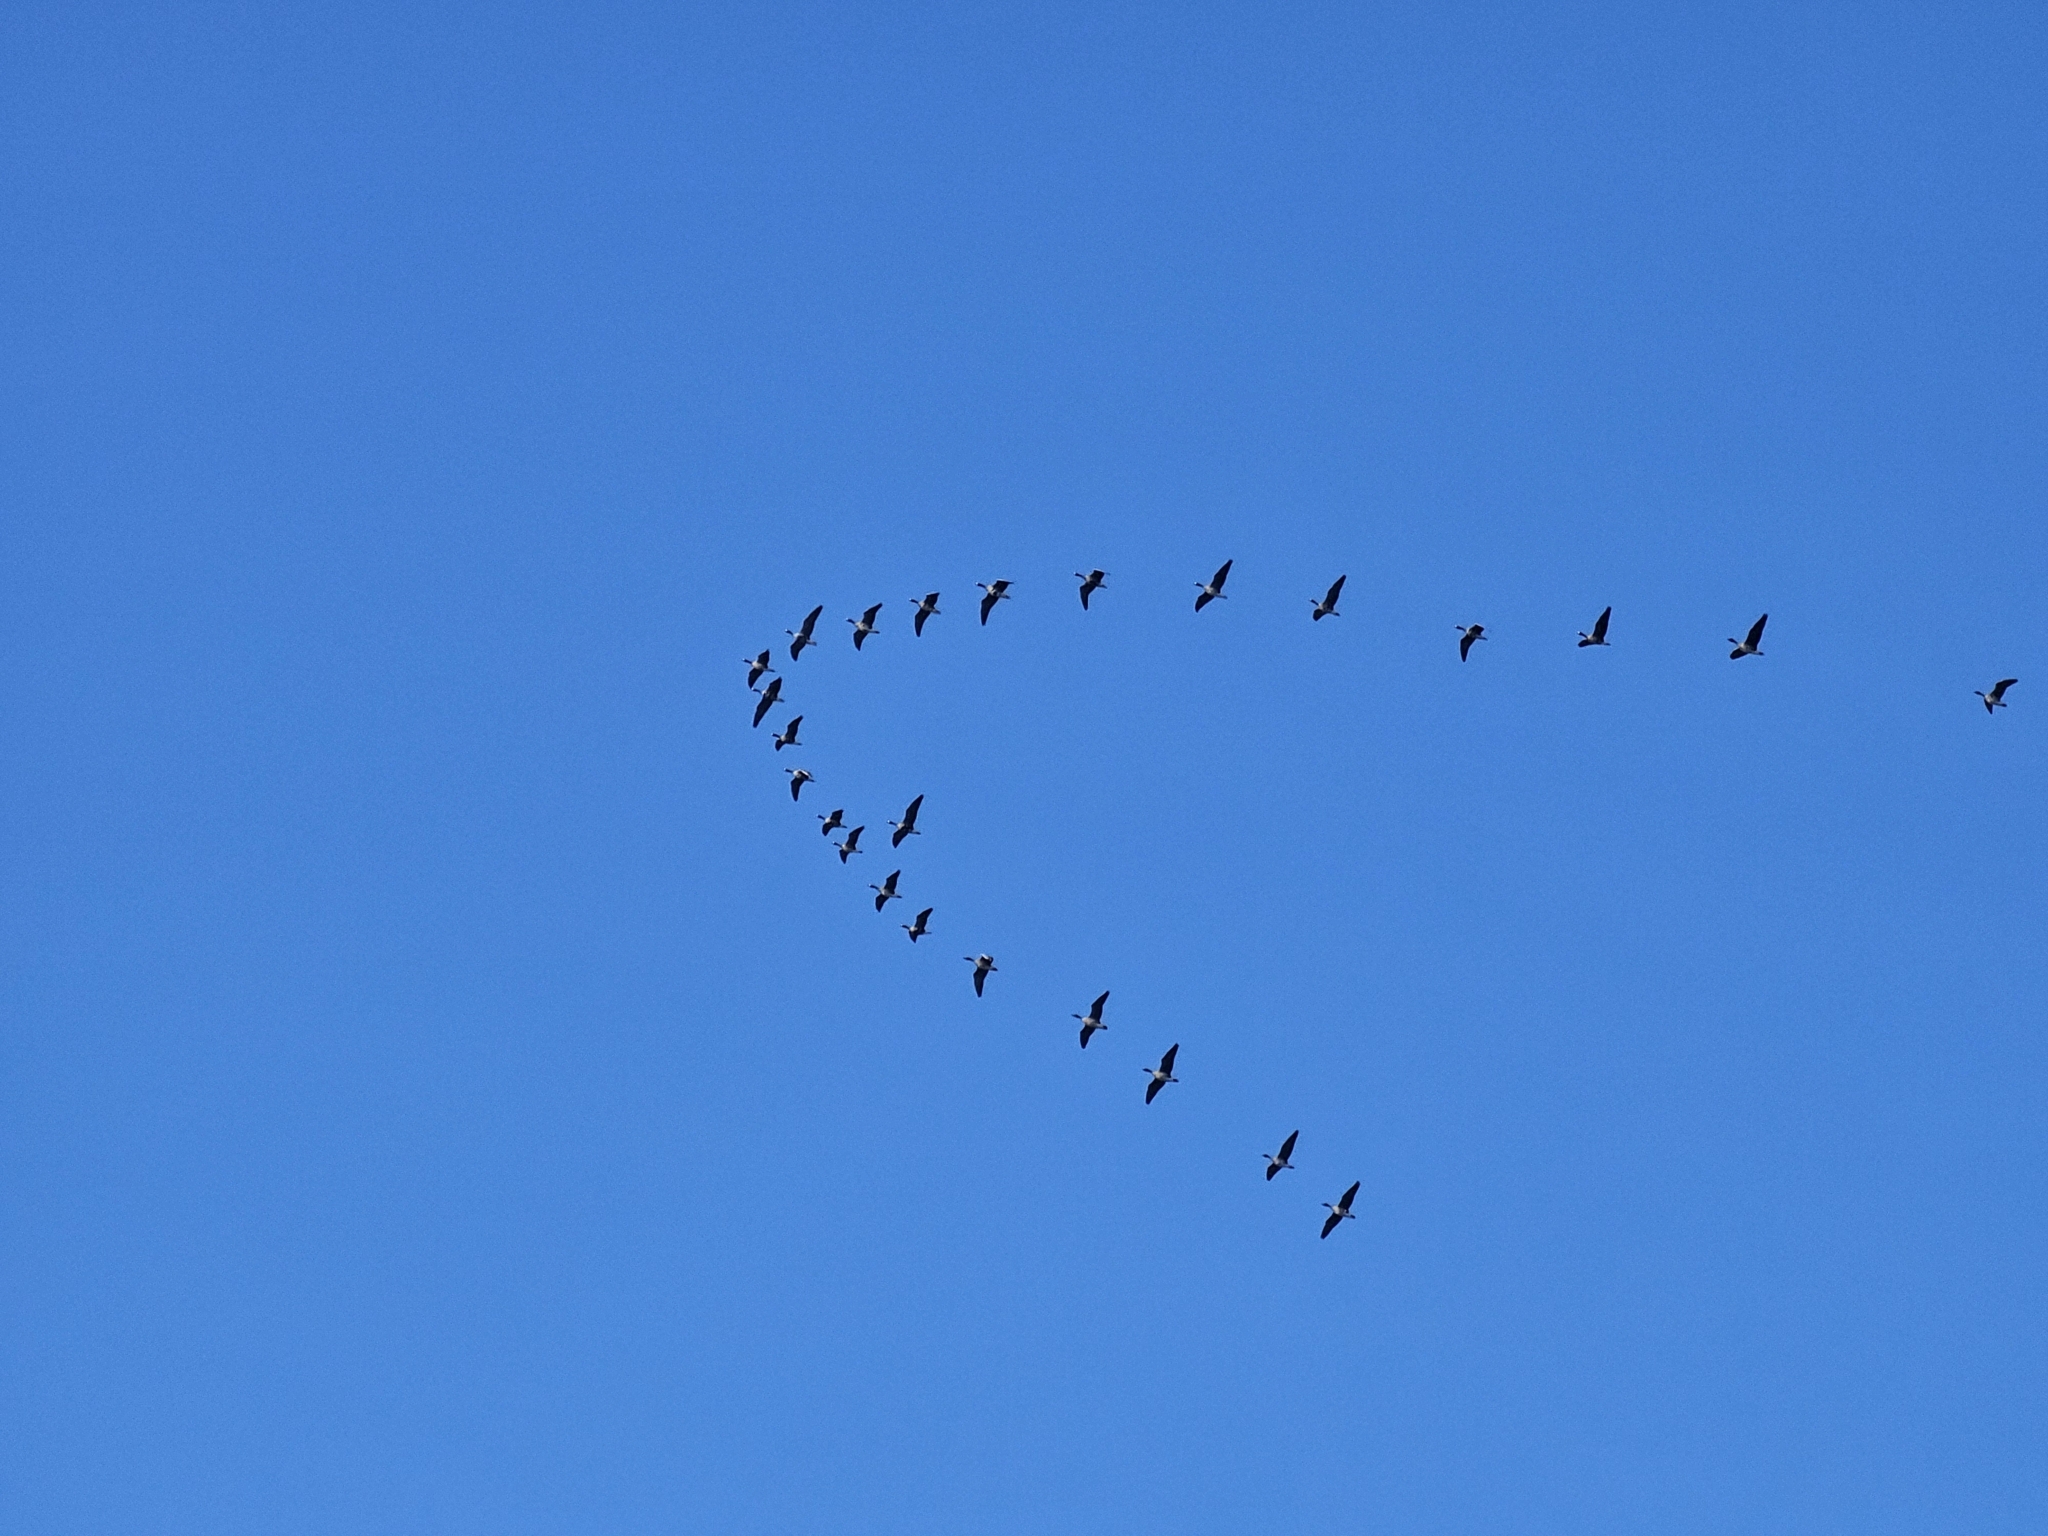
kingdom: Animalia
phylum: Chordata
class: Aves
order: Anseriformes
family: Anatidae
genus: Anser
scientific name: Anser albifrons
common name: Greater white-fronted goose
